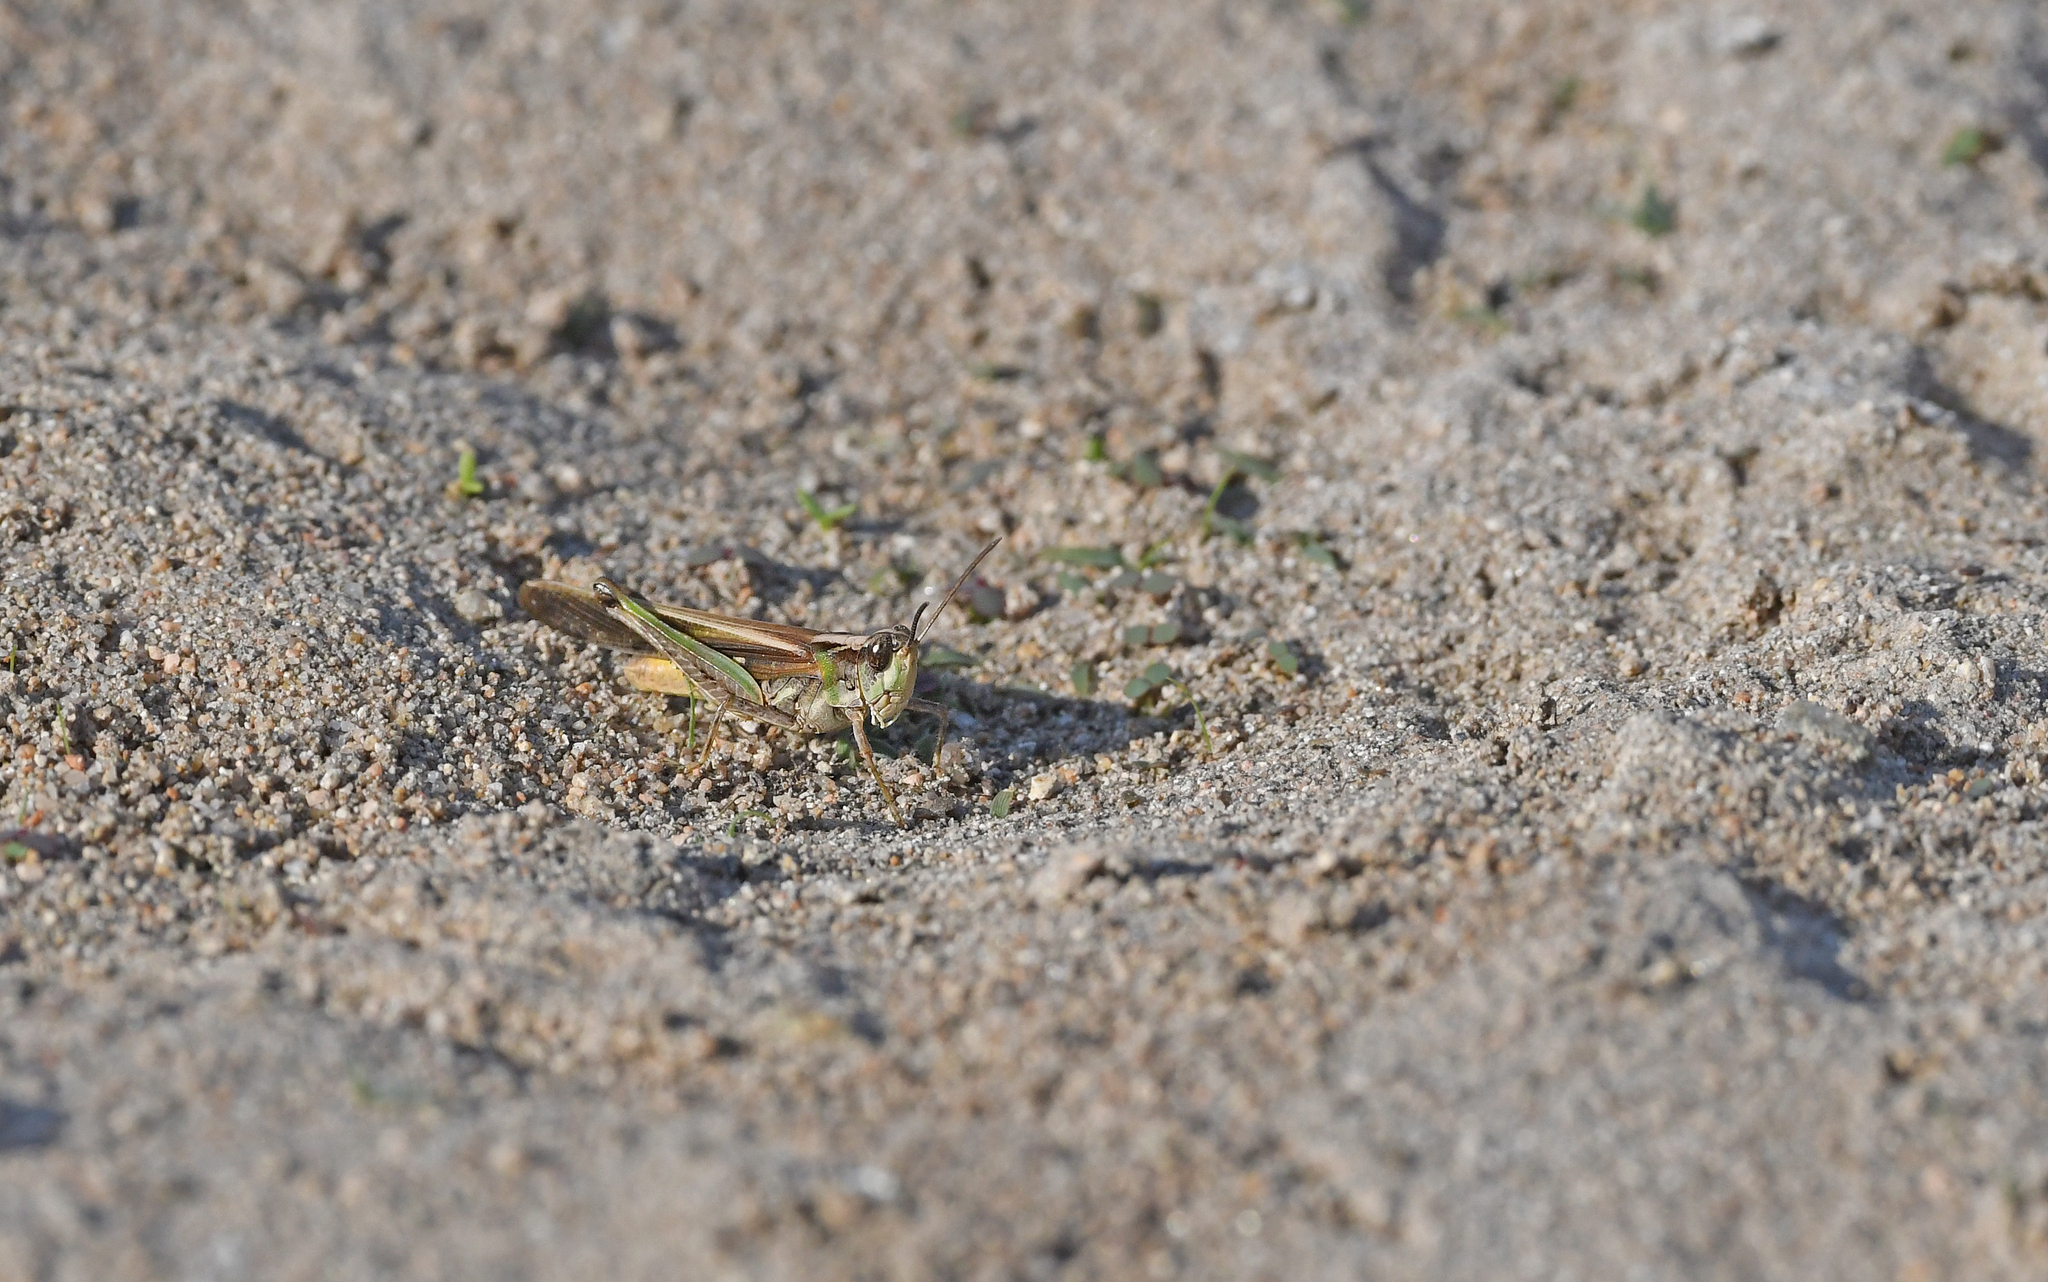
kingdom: Animalia
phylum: Arthropoda
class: Insecta
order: Orthoptera
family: Acrididae
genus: Aiolopus
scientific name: Aiolopus puissanti
